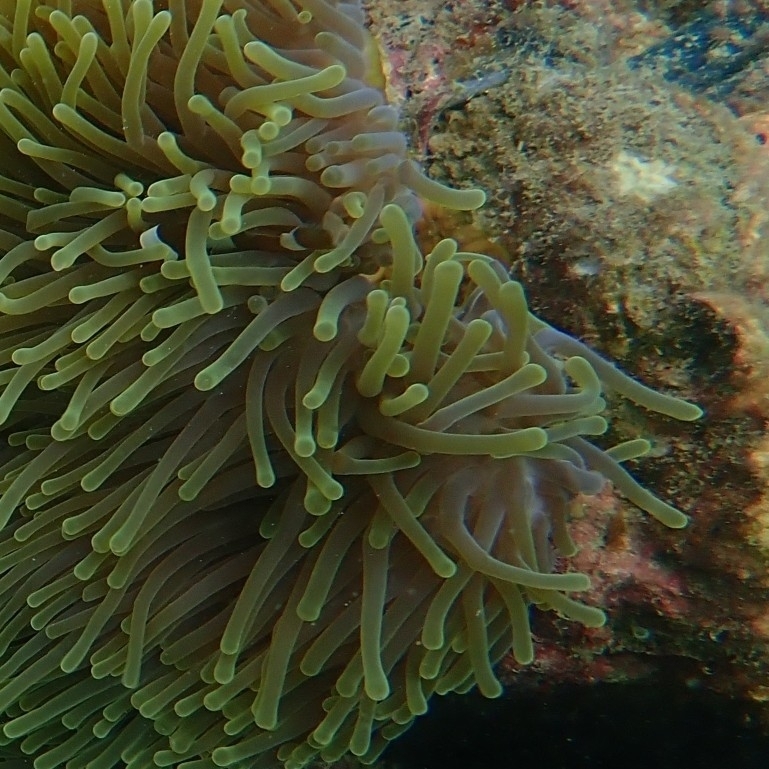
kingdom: Animalia
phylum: Cnidaria
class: Anthozoa
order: Actiniaria
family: Stichodactylidae
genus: Radianthus
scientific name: Radianthus magnifica
